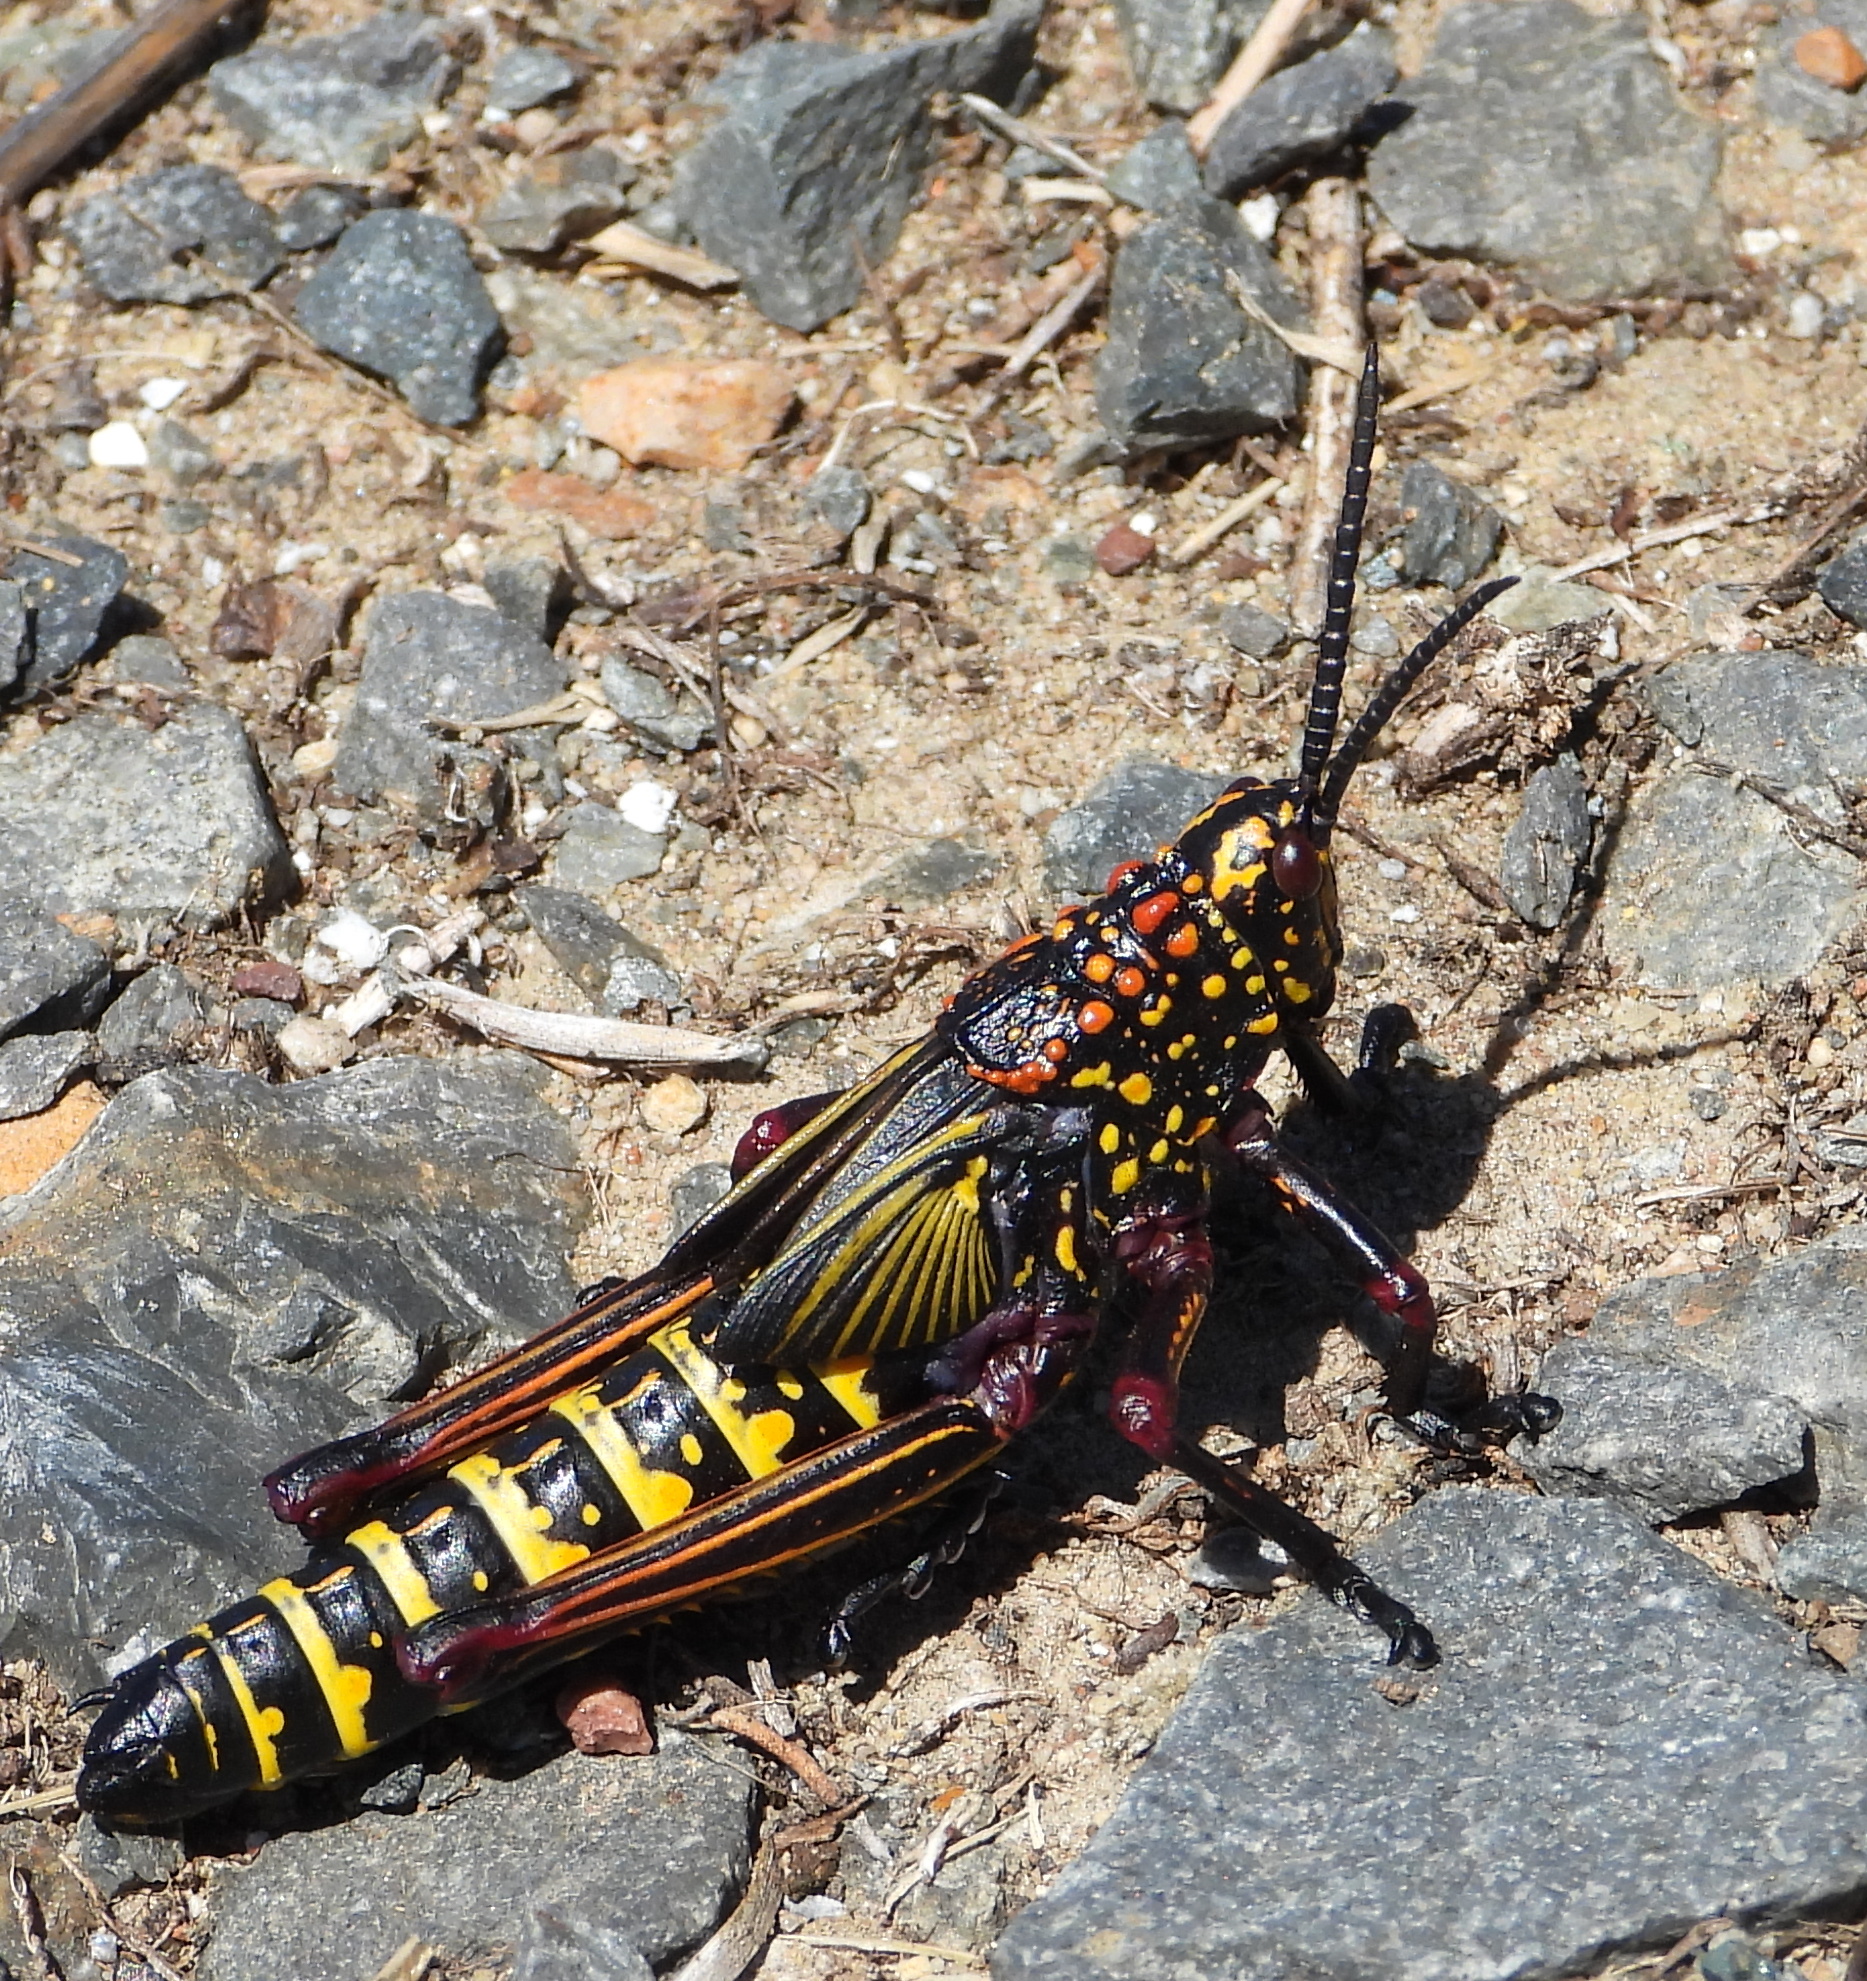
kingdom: Animalia
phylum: Arthropoda
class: Insecta
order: Orthoptera
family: Pyrgomorphidae
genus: Dictyophorus
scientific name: Dictyophorus spumans
